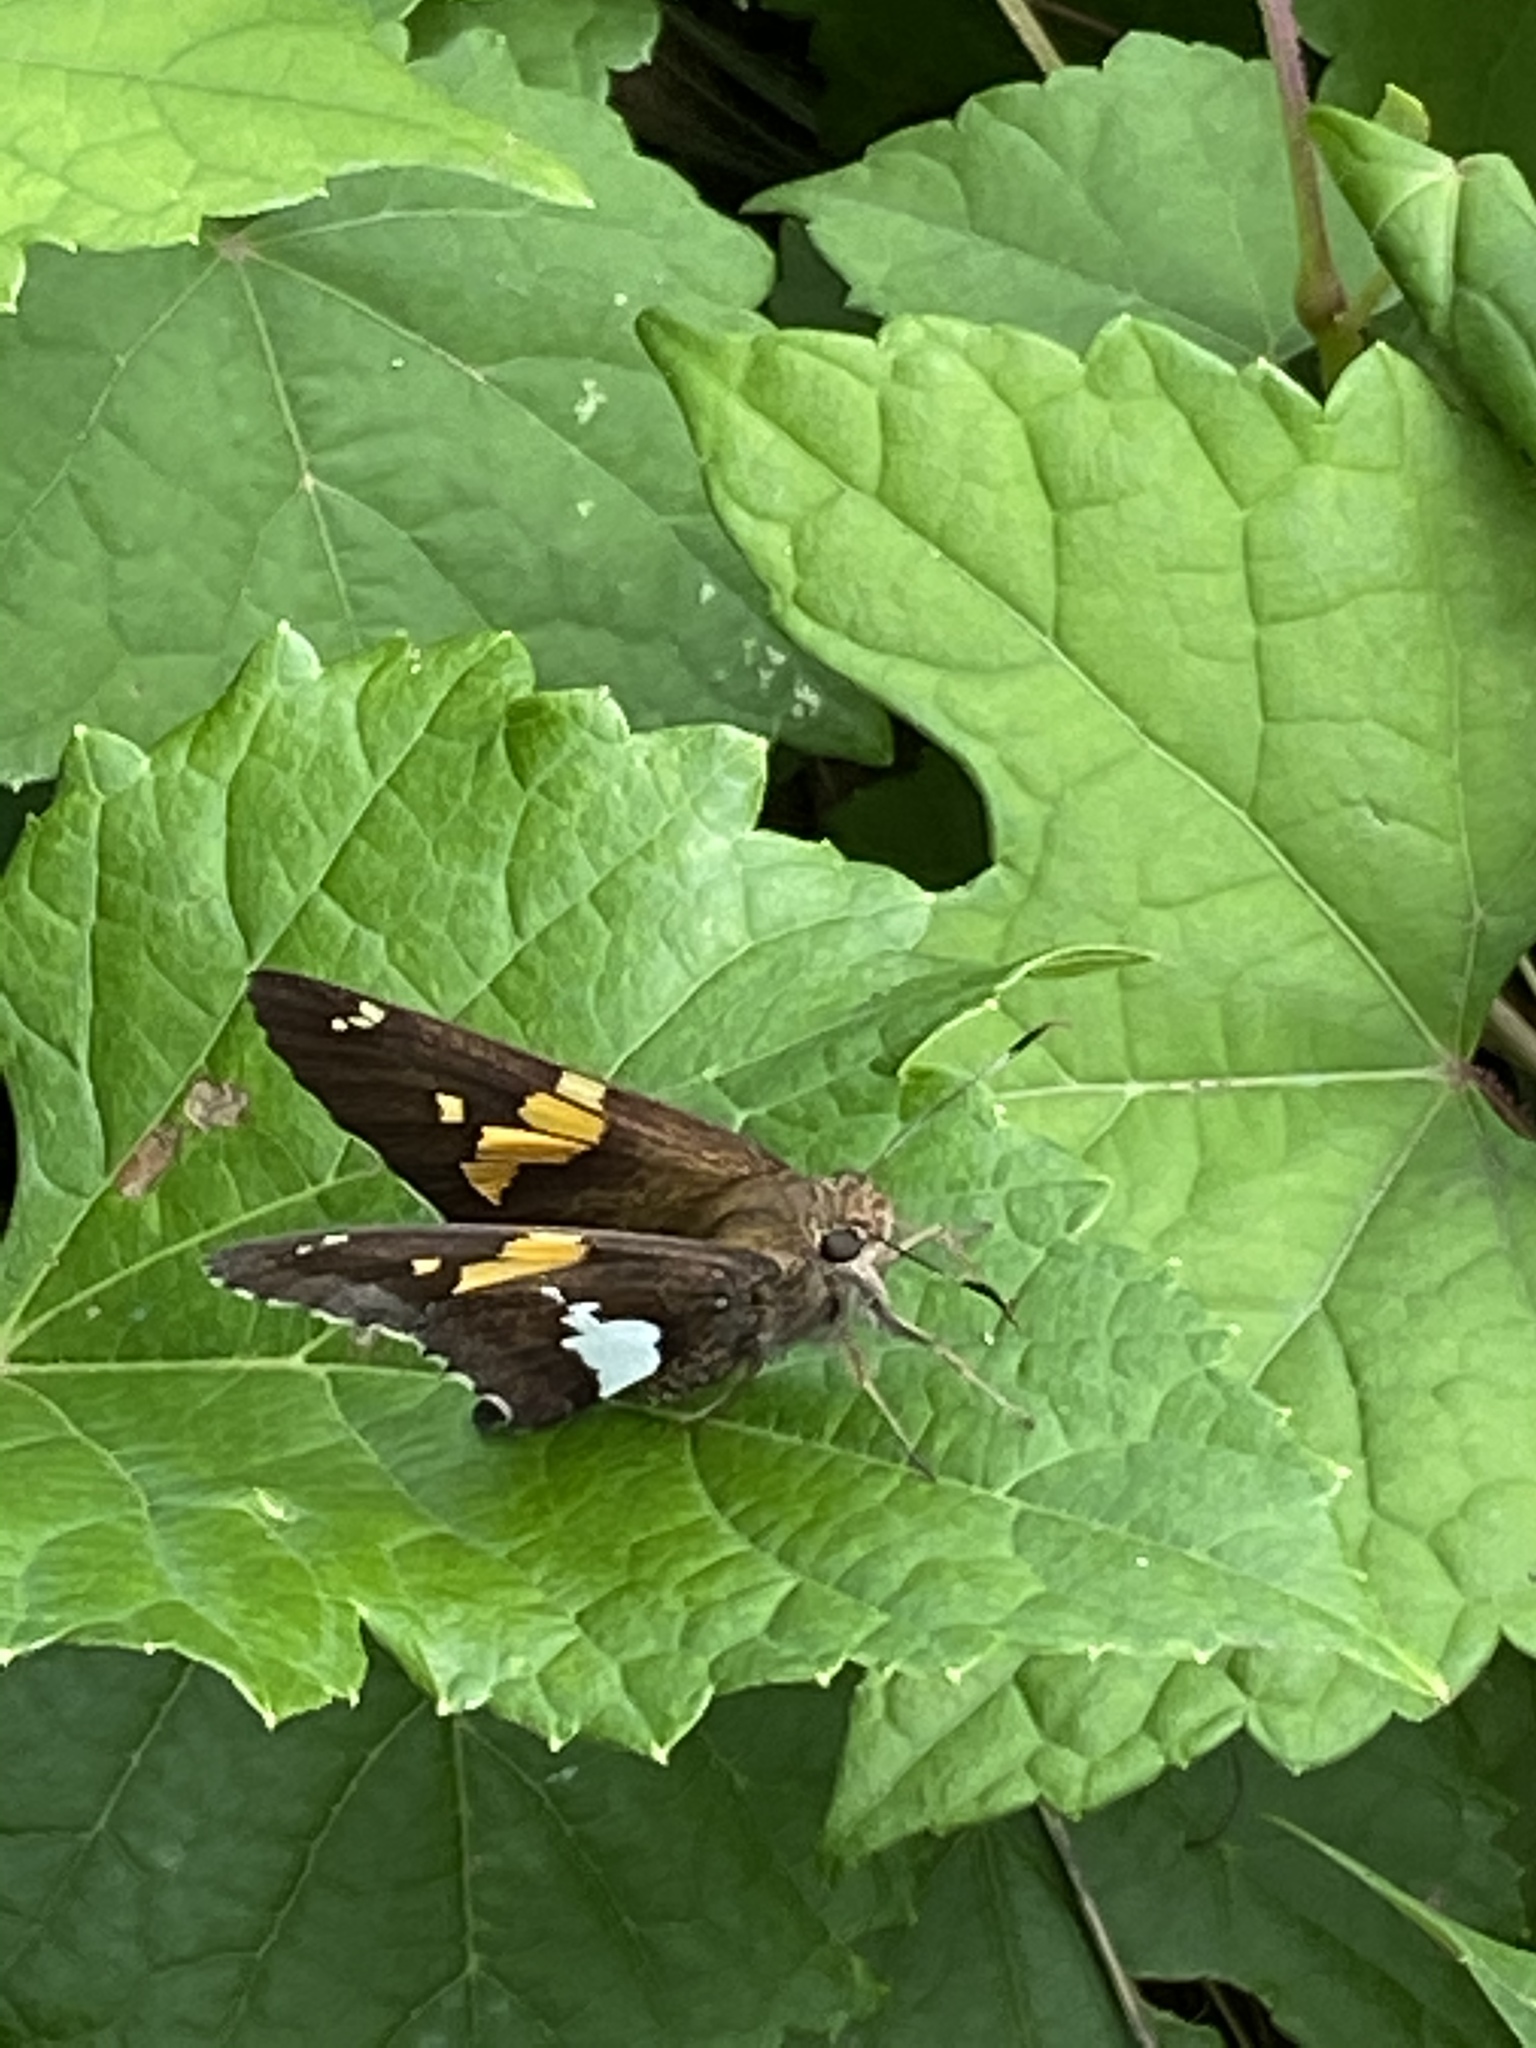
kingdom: Animalia
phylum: Arthropoda
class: Insecta
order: Lepidoptera
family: Hesperiidae
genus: Epargyreus
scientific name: Epargyreus clarus
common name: Silver-spotted skipper
